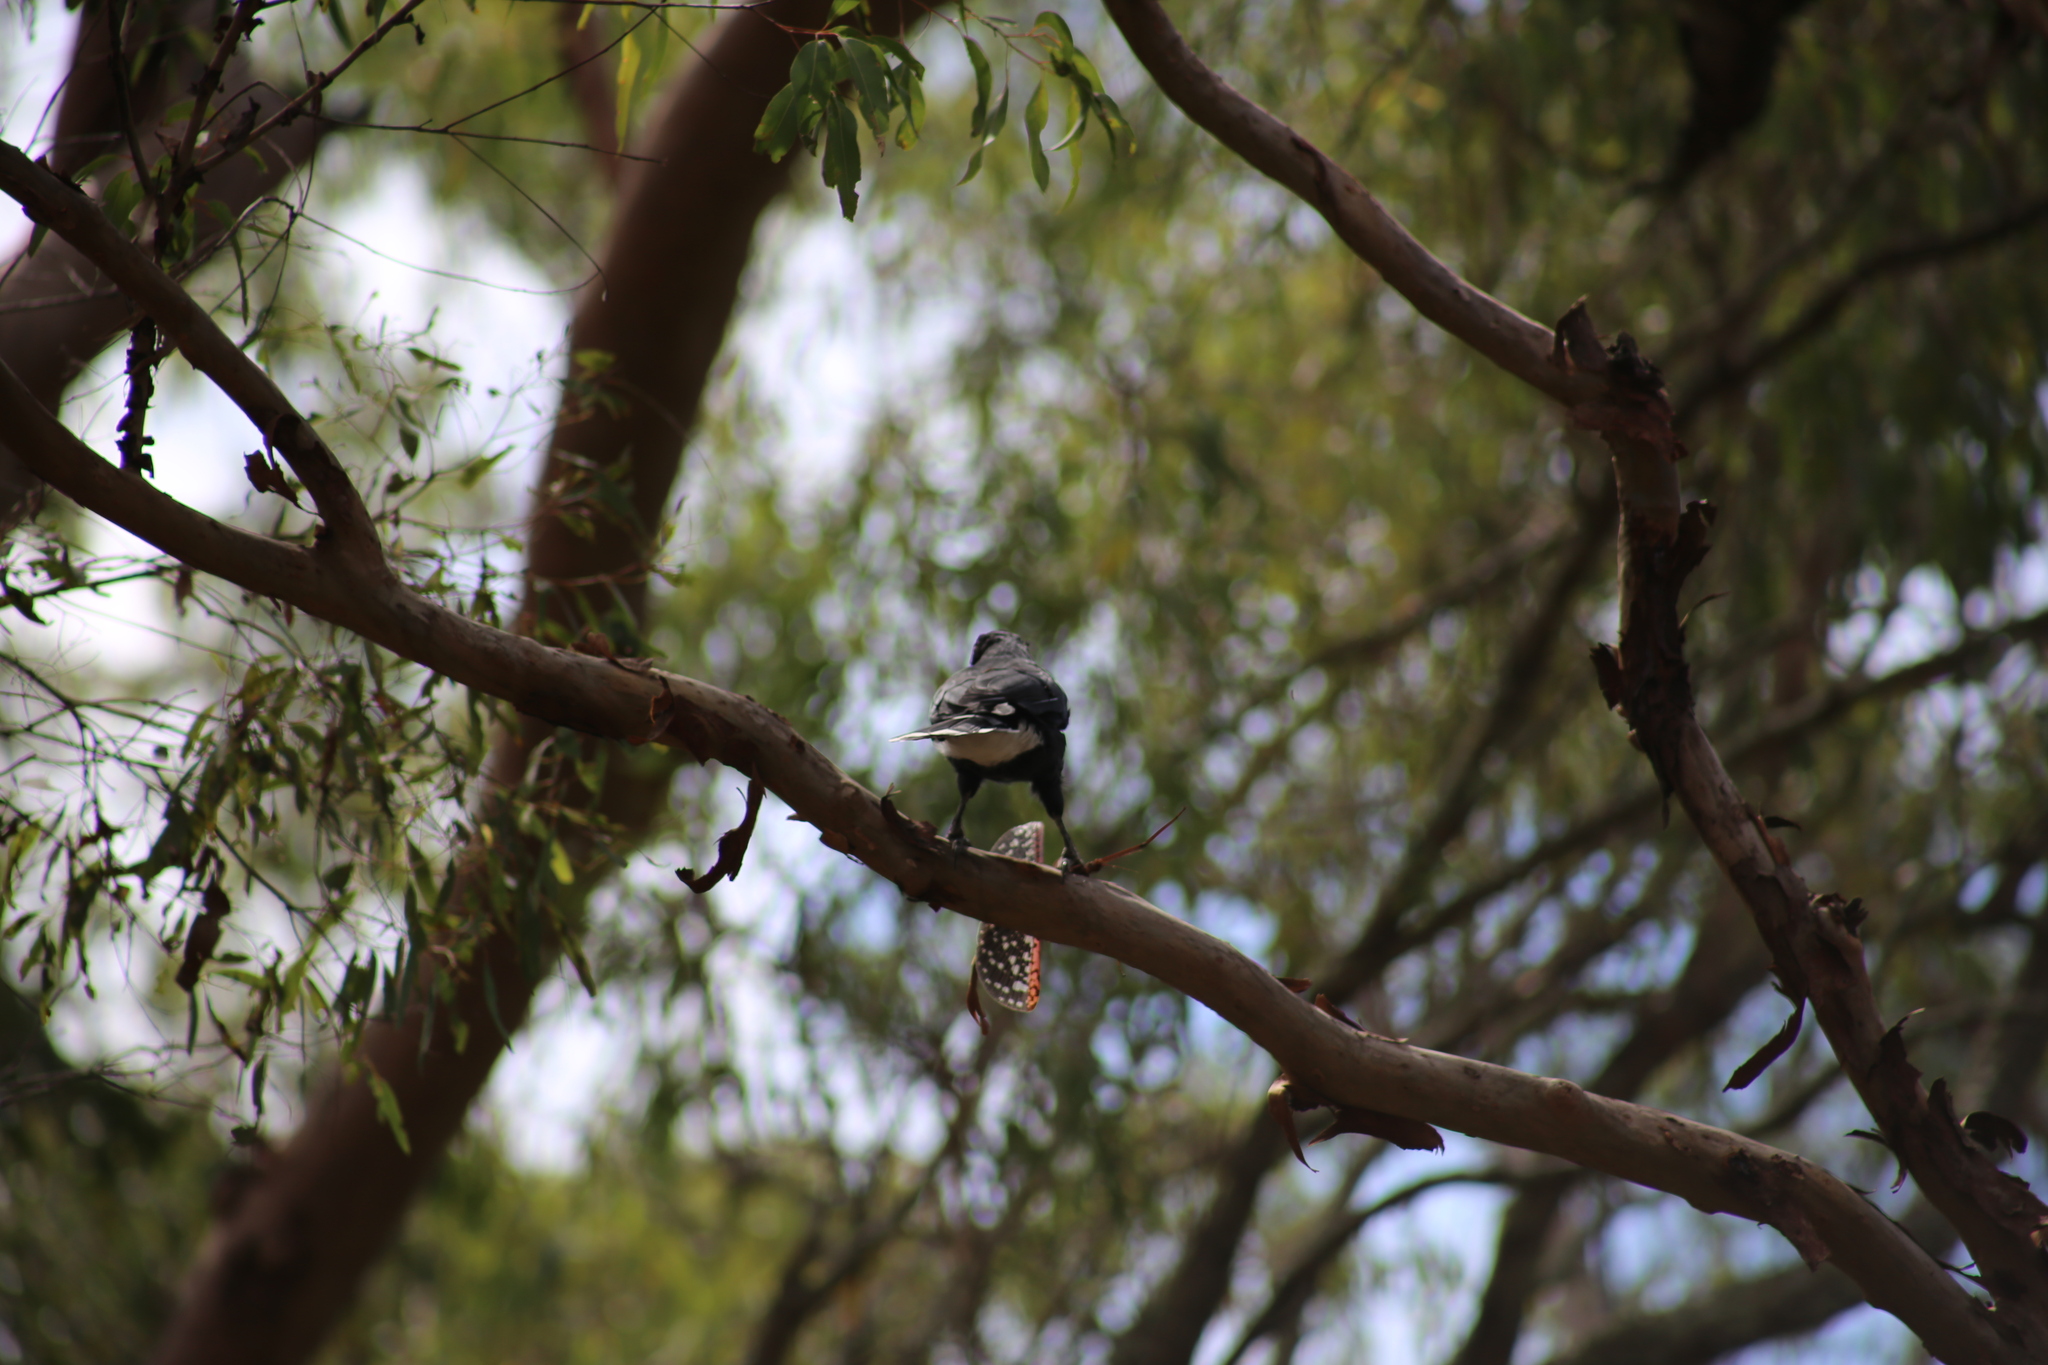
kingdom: Animalia
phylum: Chordata
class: Aves
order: Passeriformes
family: Cracticidae
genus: Strepera
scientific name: Strepera graculina
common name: Pied currawong
